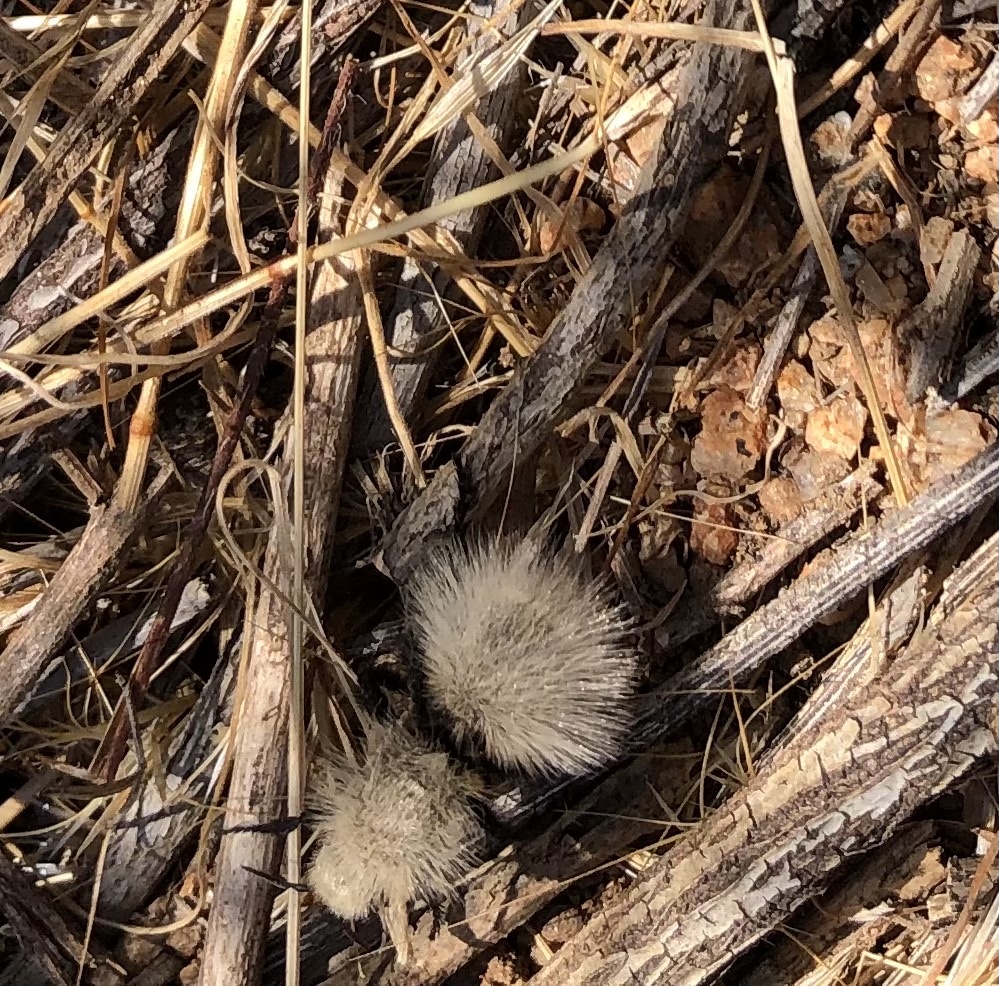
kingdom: Animalia
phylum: Arthropoda
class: Insecta
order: Hymenoptera
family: Mutillidae
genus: Dasymutilla
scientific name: Dasymutilla
